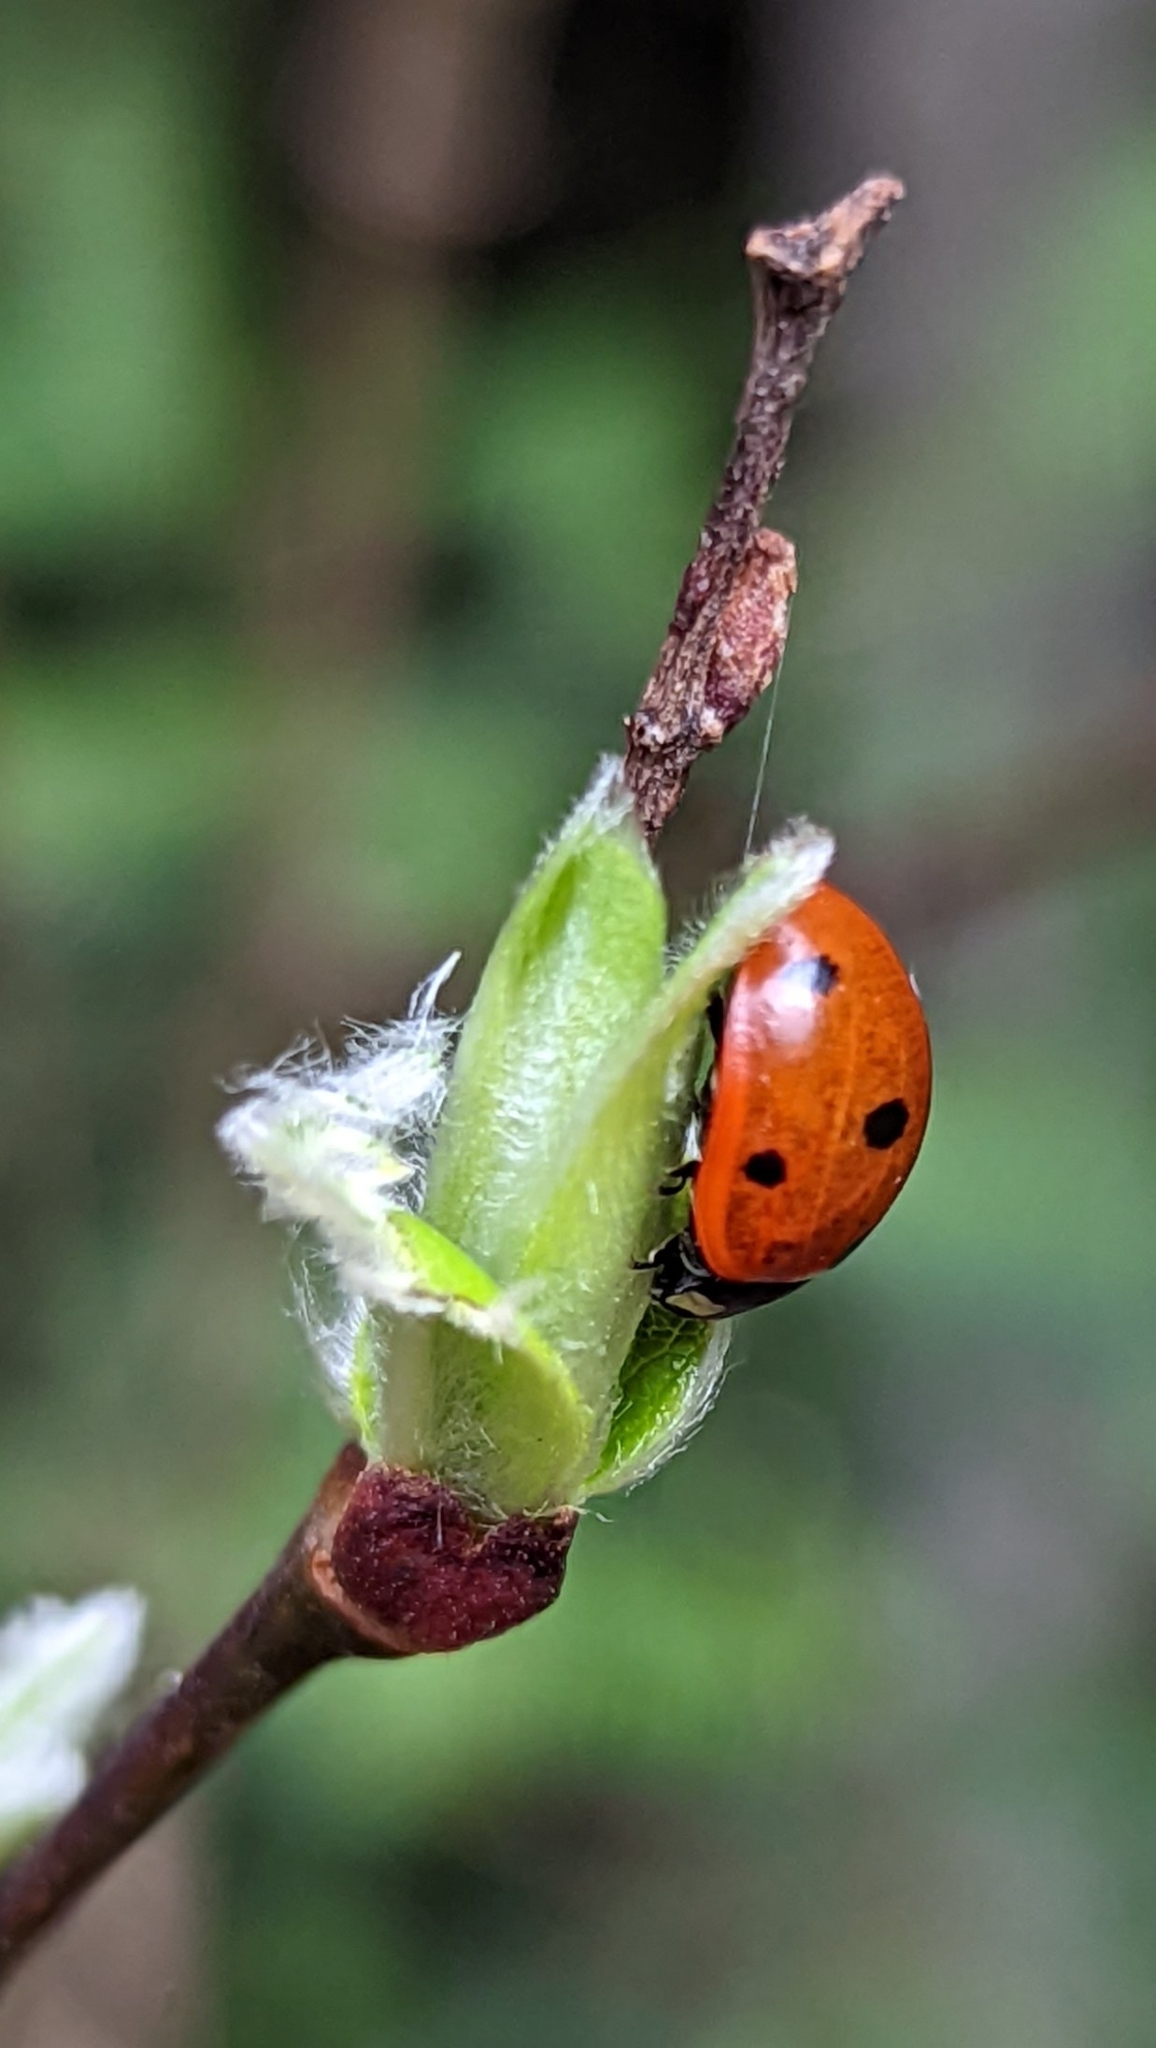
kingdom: Animalia
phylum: Arthropoda
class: Insecta
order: Coleoptera
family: Coccinellidae
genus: Coccinella
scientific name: Coccinella septempunctata
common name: Sevenspotted lady beetle
